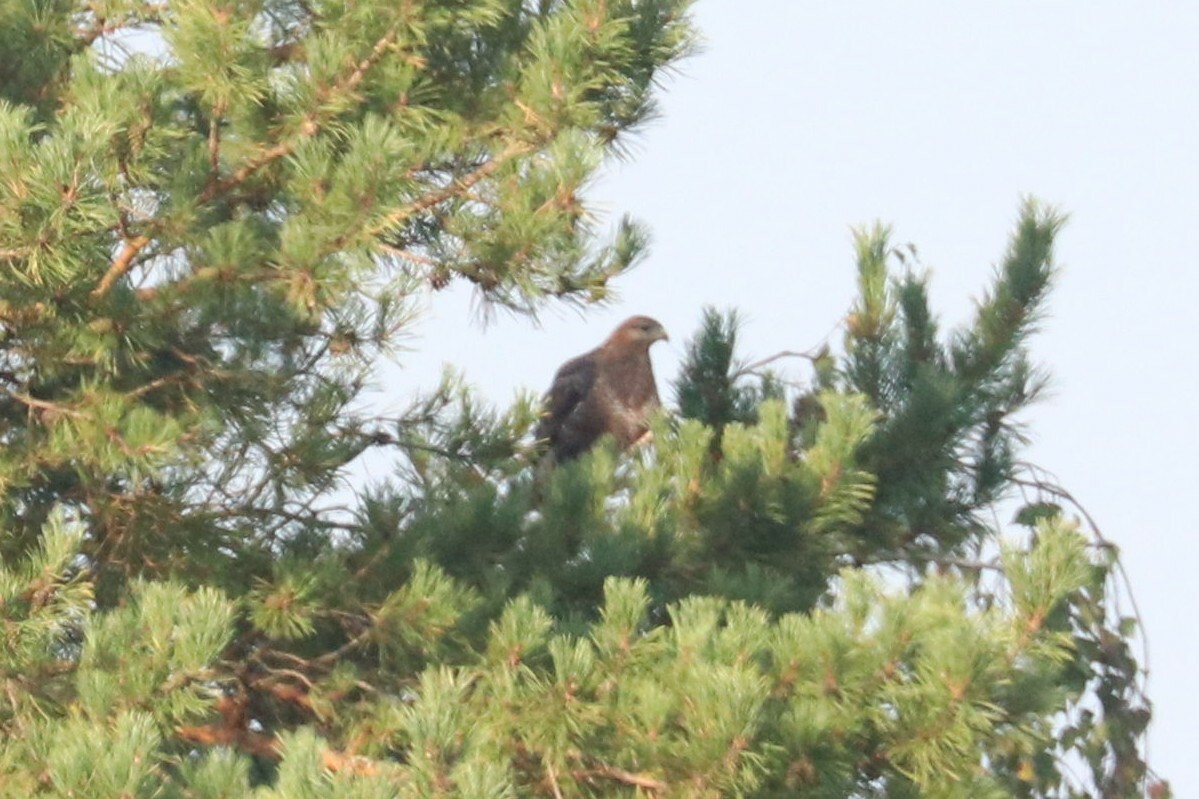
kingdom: Animalia
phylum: Chordata
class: Aves
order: Accipitriformes
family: Accipitridae
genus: Buteo
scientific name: Buteo buteo
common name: Common buzzard
